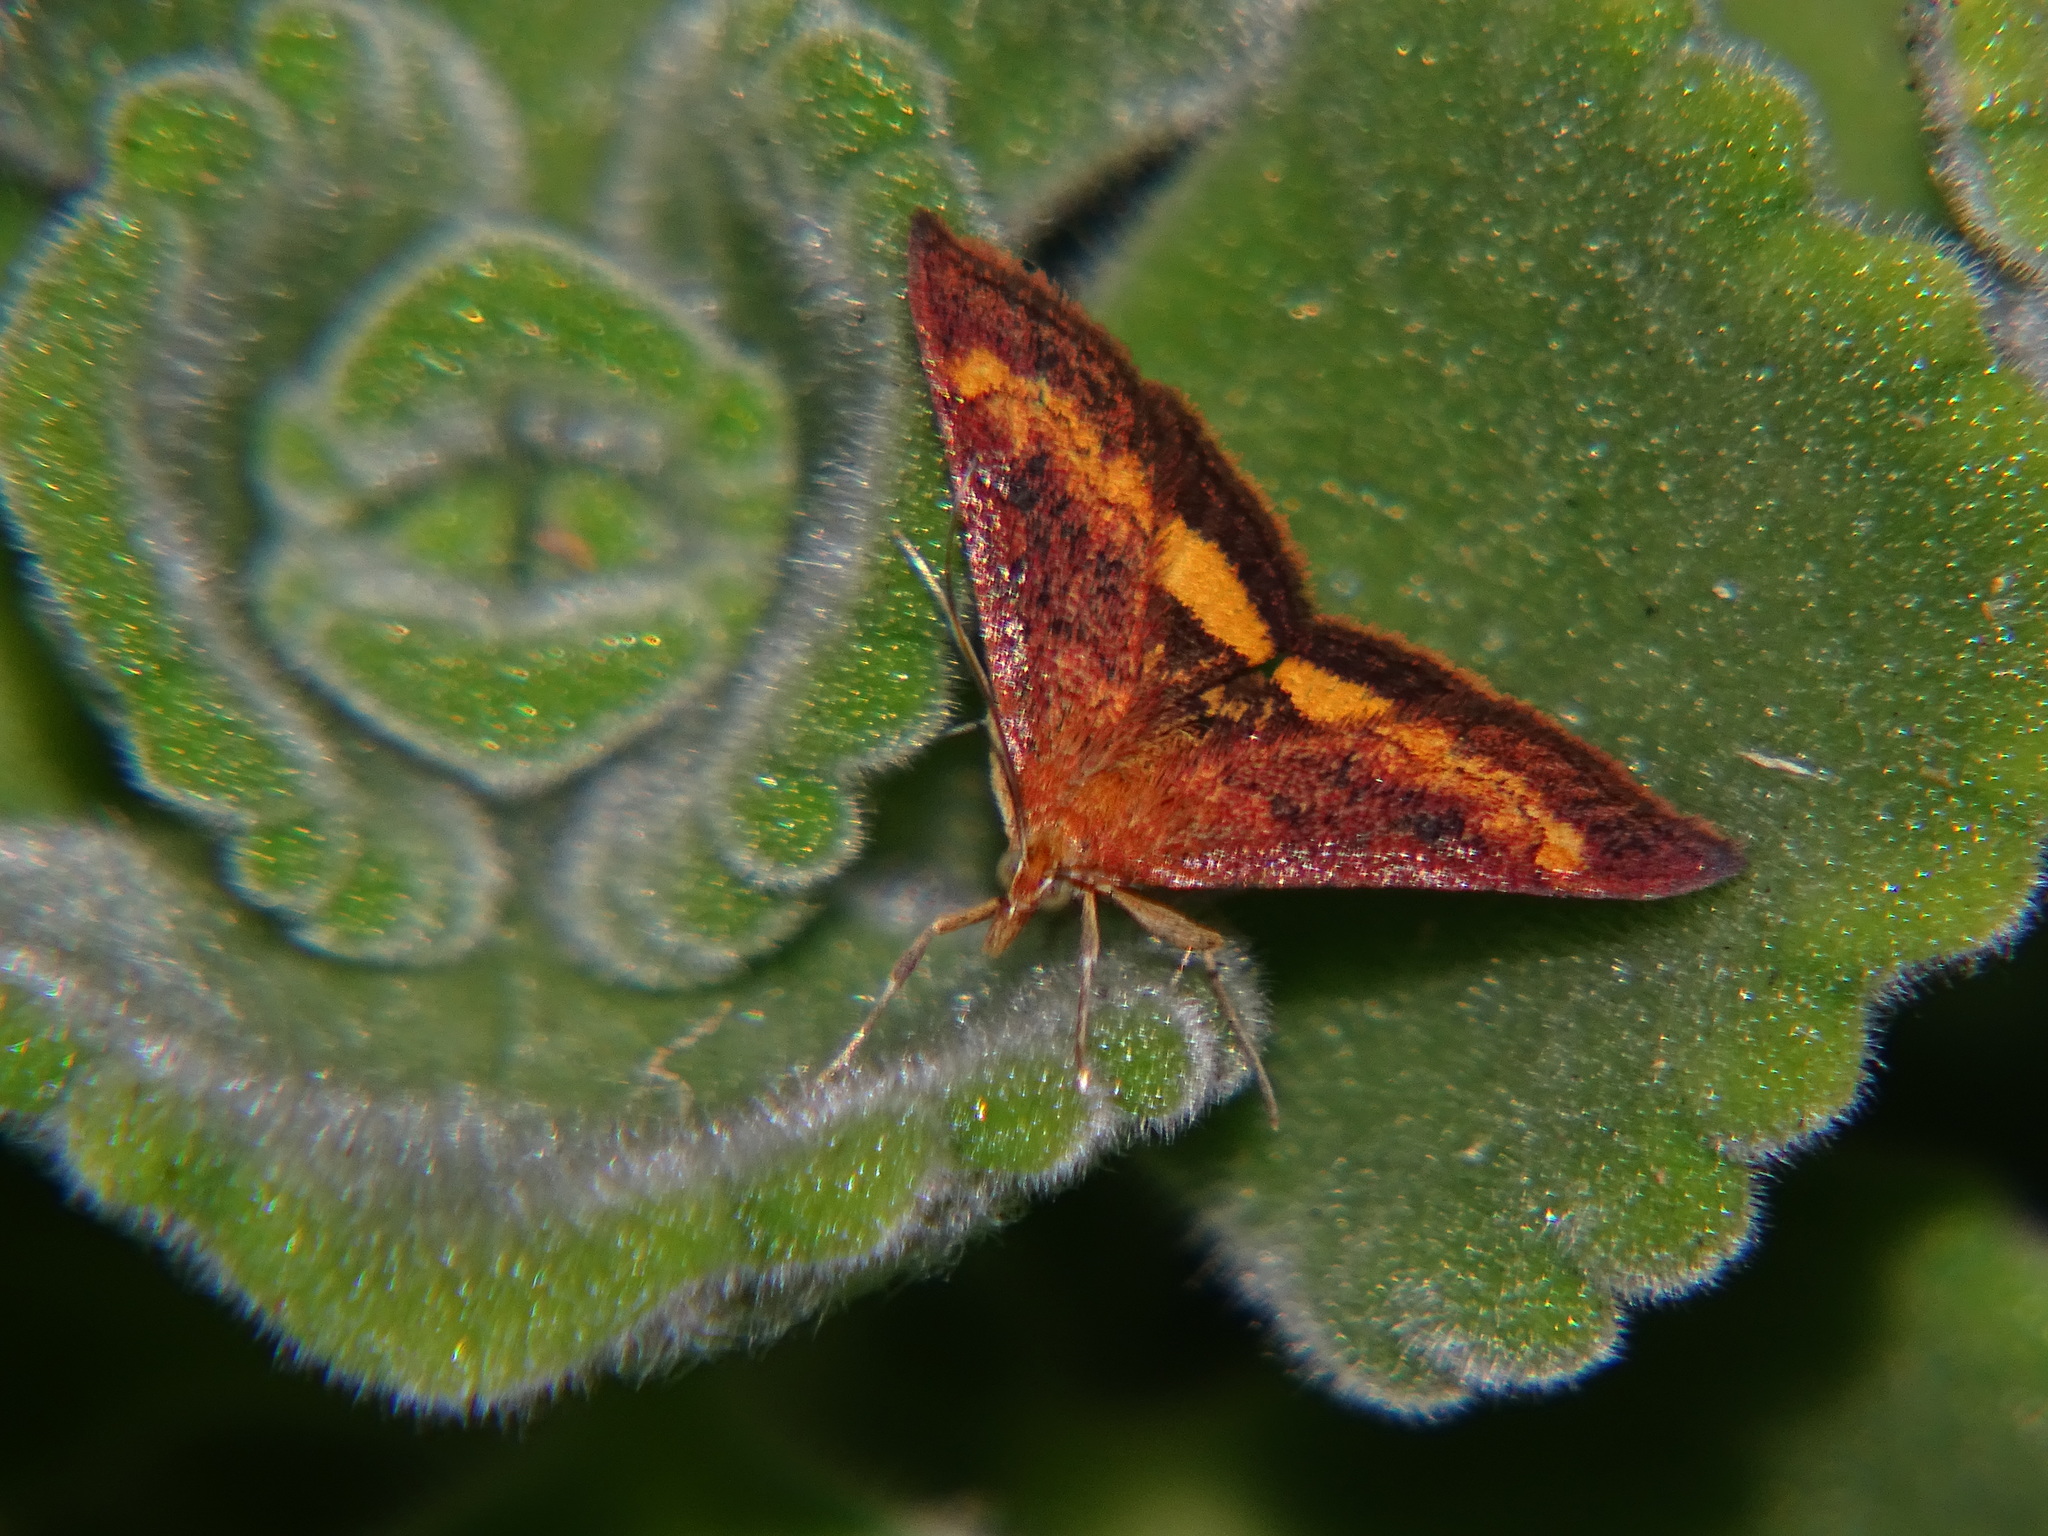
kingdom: Animalia
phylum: Arthropoda
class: Insecta
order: Lepidoptera
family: Crambidae
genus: Pyrausta
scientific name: Pyrausta californicalis
